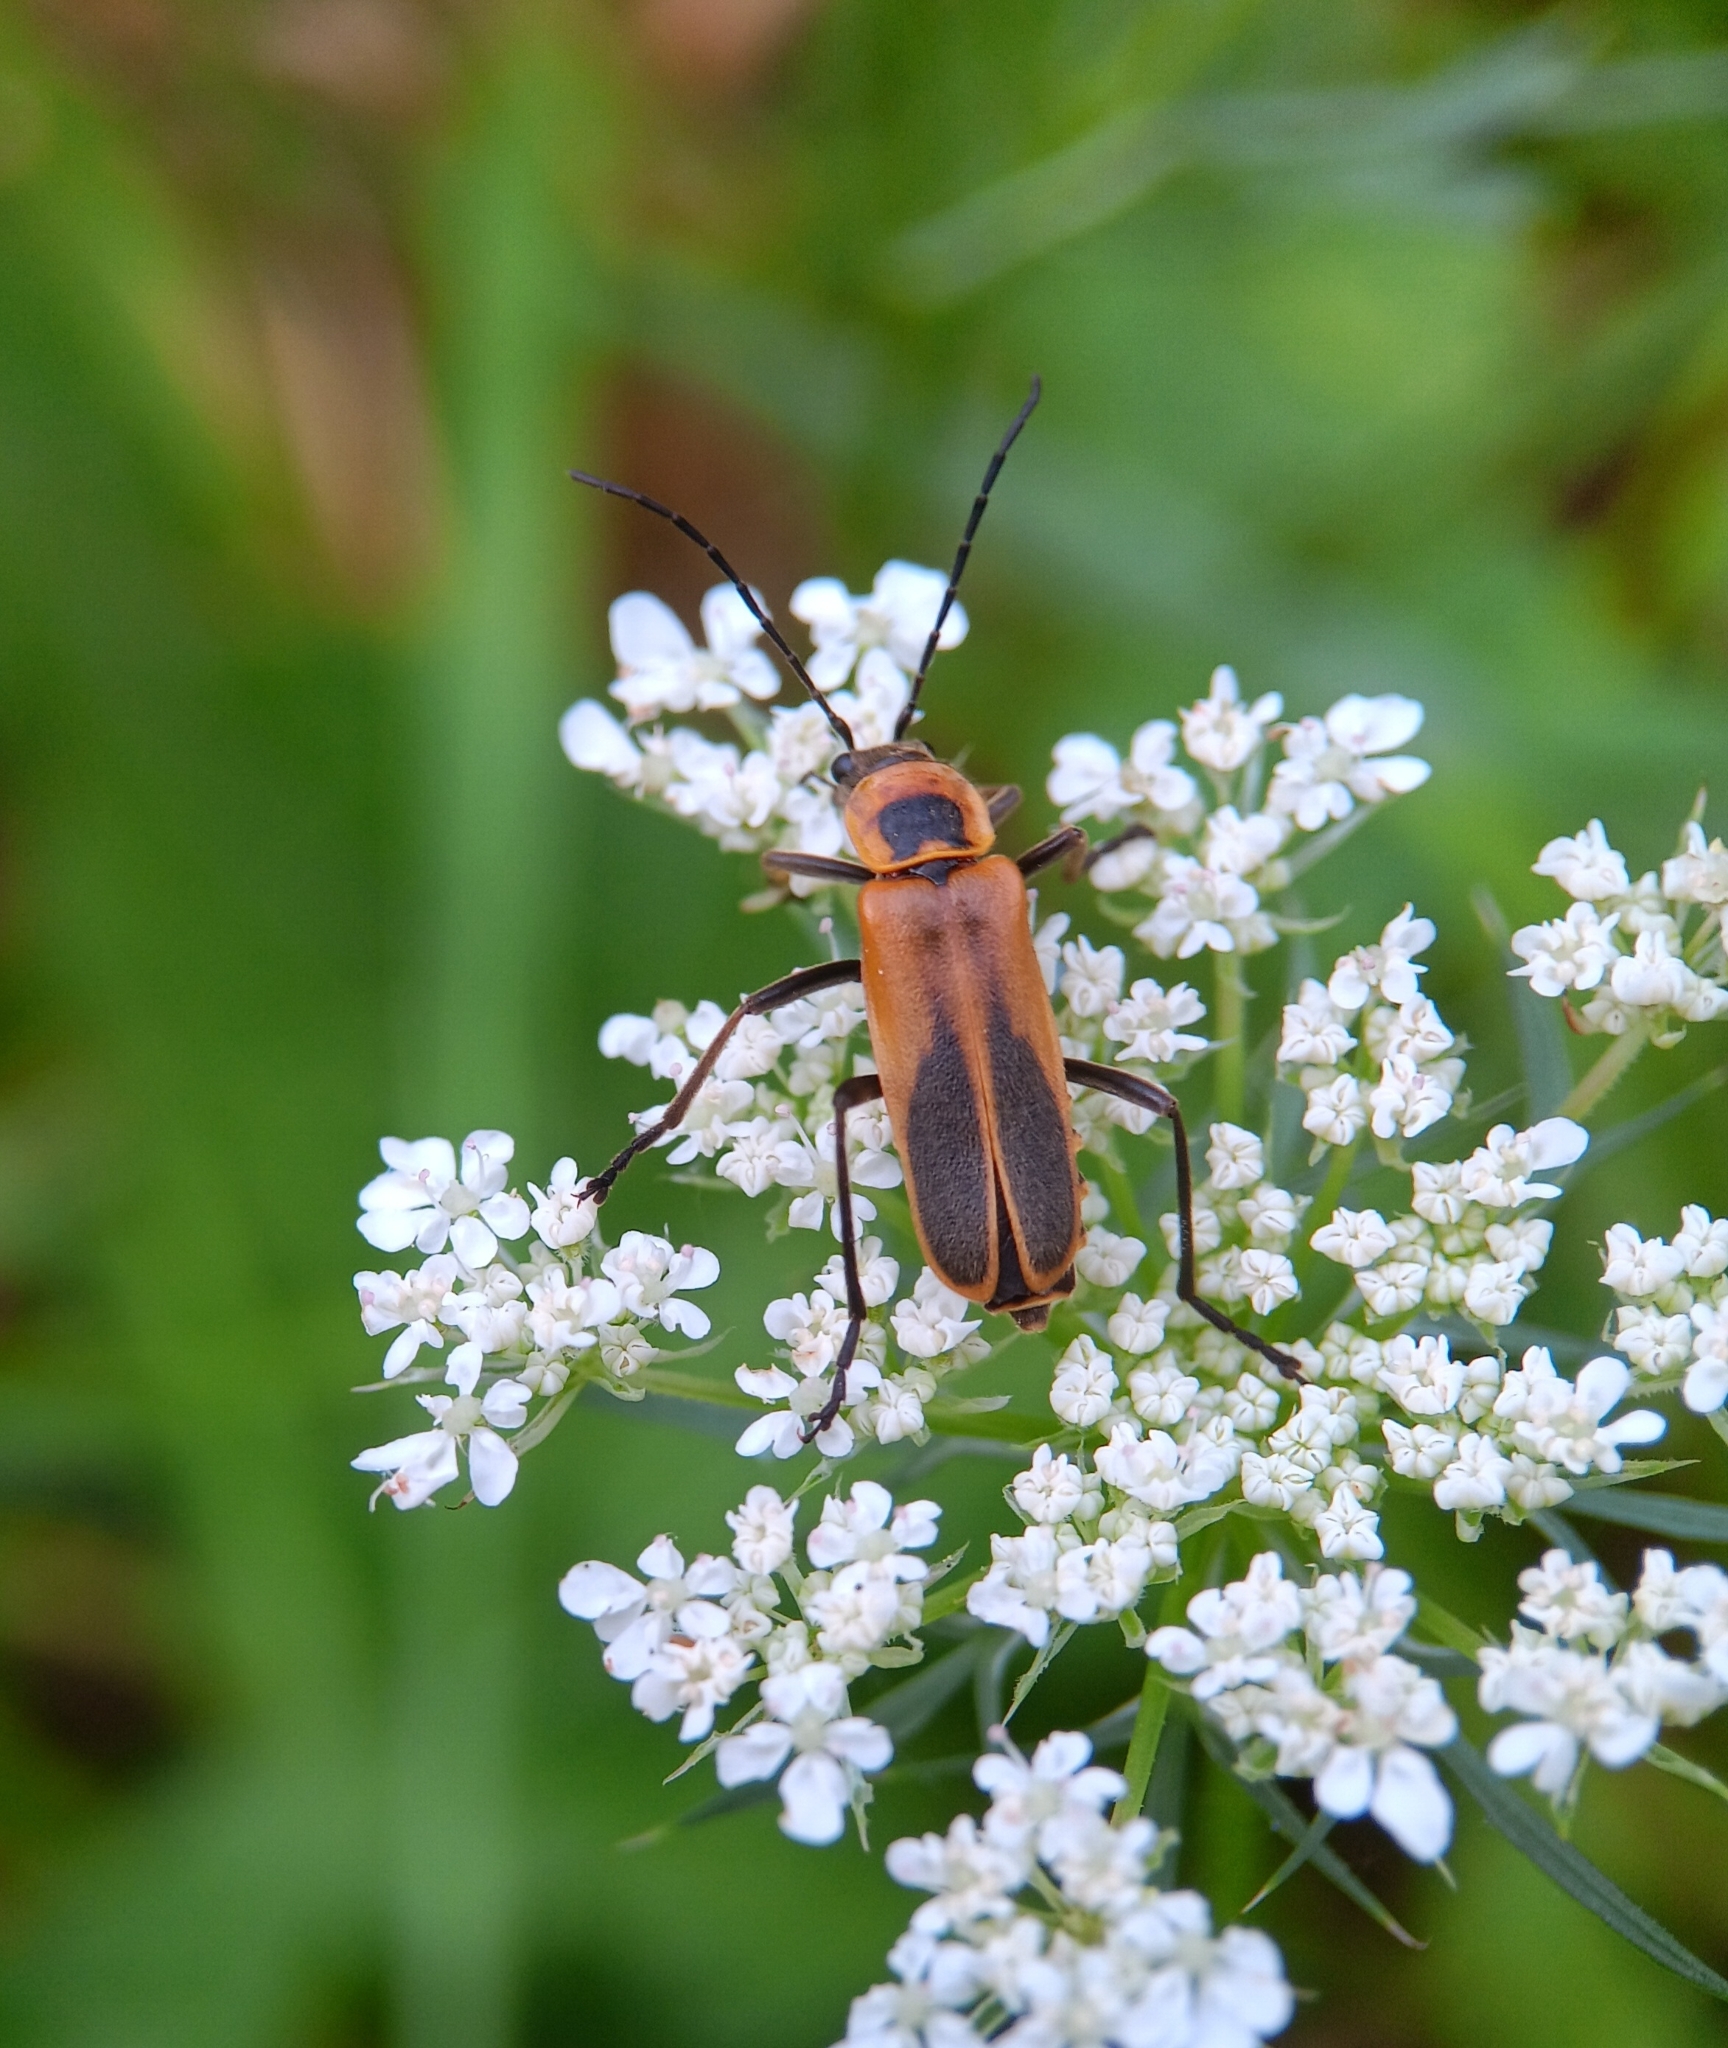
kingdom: Animalia
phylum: Arthropoda
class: Insecta
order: Coleoptera
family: Cantharidae
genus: Chauliognathus
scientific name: Chauliognathus pensylvanicus
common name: Goldenrod soldier beetle
